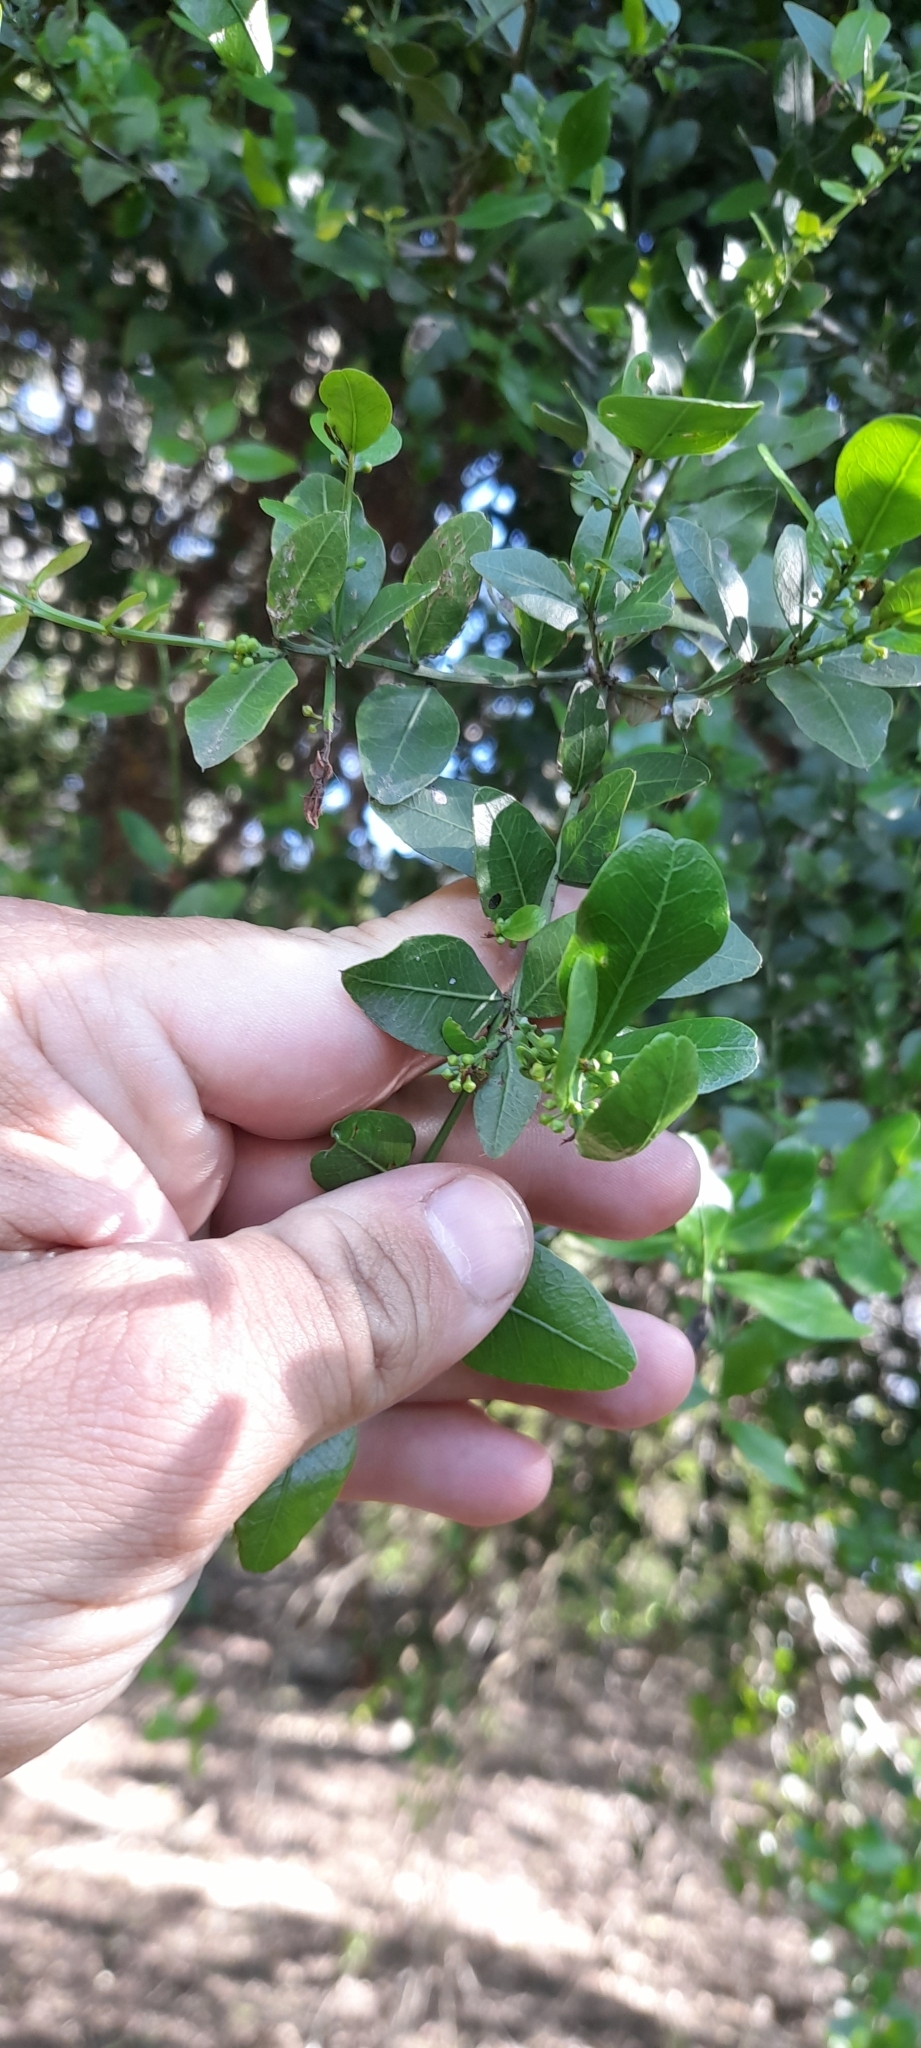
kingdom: Plantae
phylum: Tracheophyta
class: Magnoliopsida
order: Rosales
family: Rhamnaceae
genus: Scutia
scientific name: Scutia buxifolia
